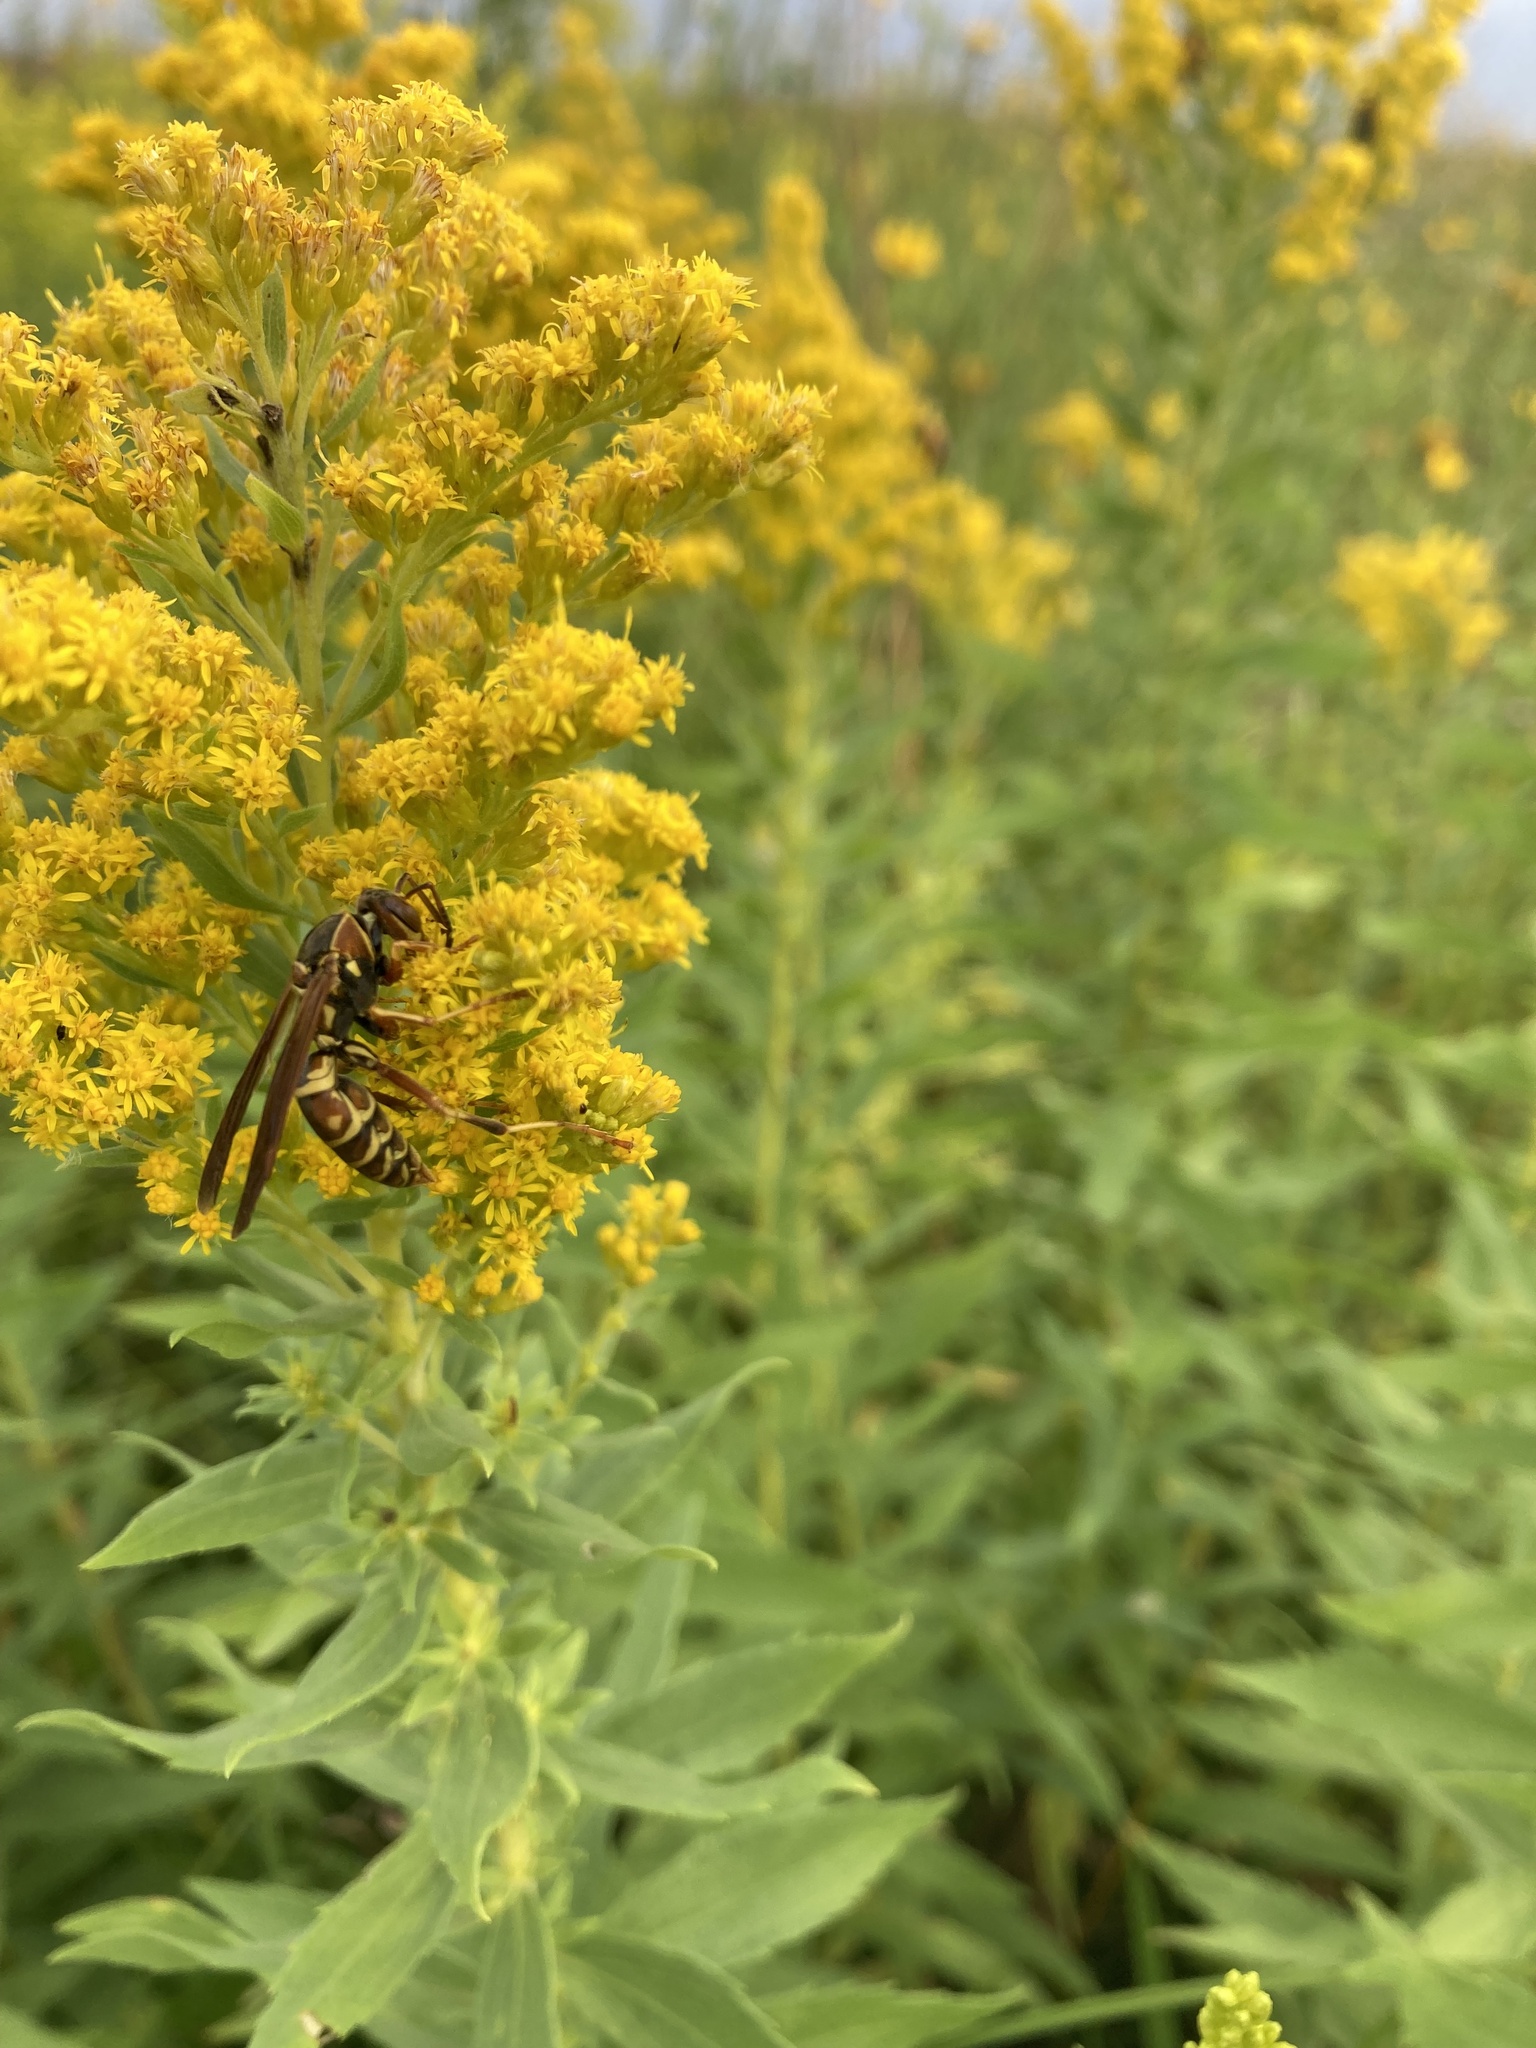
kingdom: Animalia
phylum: Arthropoda
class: Insecta
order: Hymenoptera
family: Eumenidae
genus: Polistes
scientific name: Polistes fuscatus
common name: Dark paper wasp
